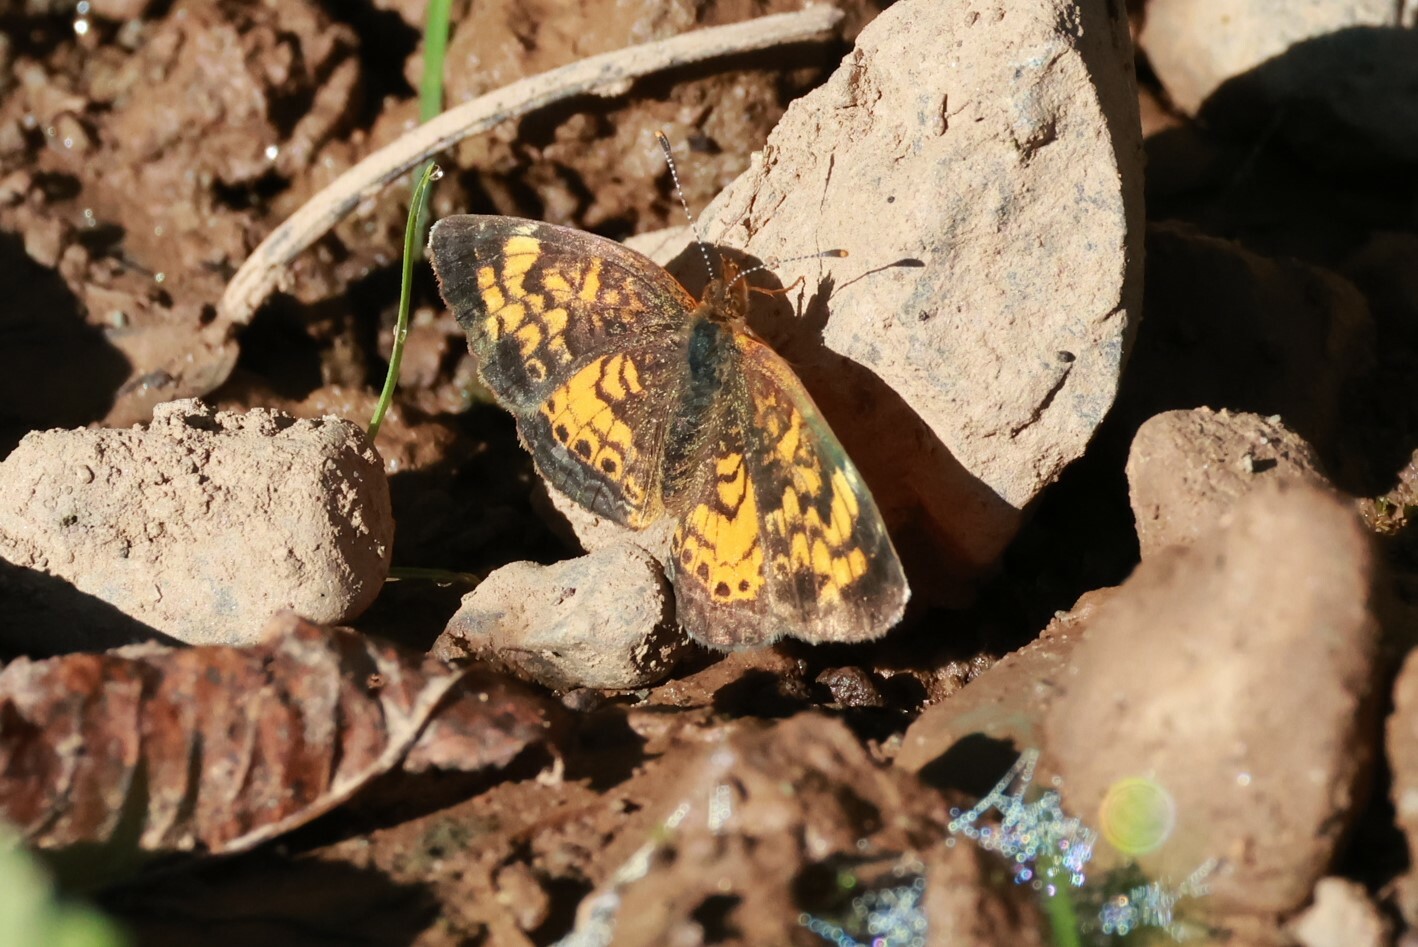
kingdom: Animalia
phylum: Arthropoda
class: Insecta
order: Lepidoptera
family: Nymphalidae
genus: Phyciodes
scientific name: Phyciodes tharos
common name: Pearl crescent
